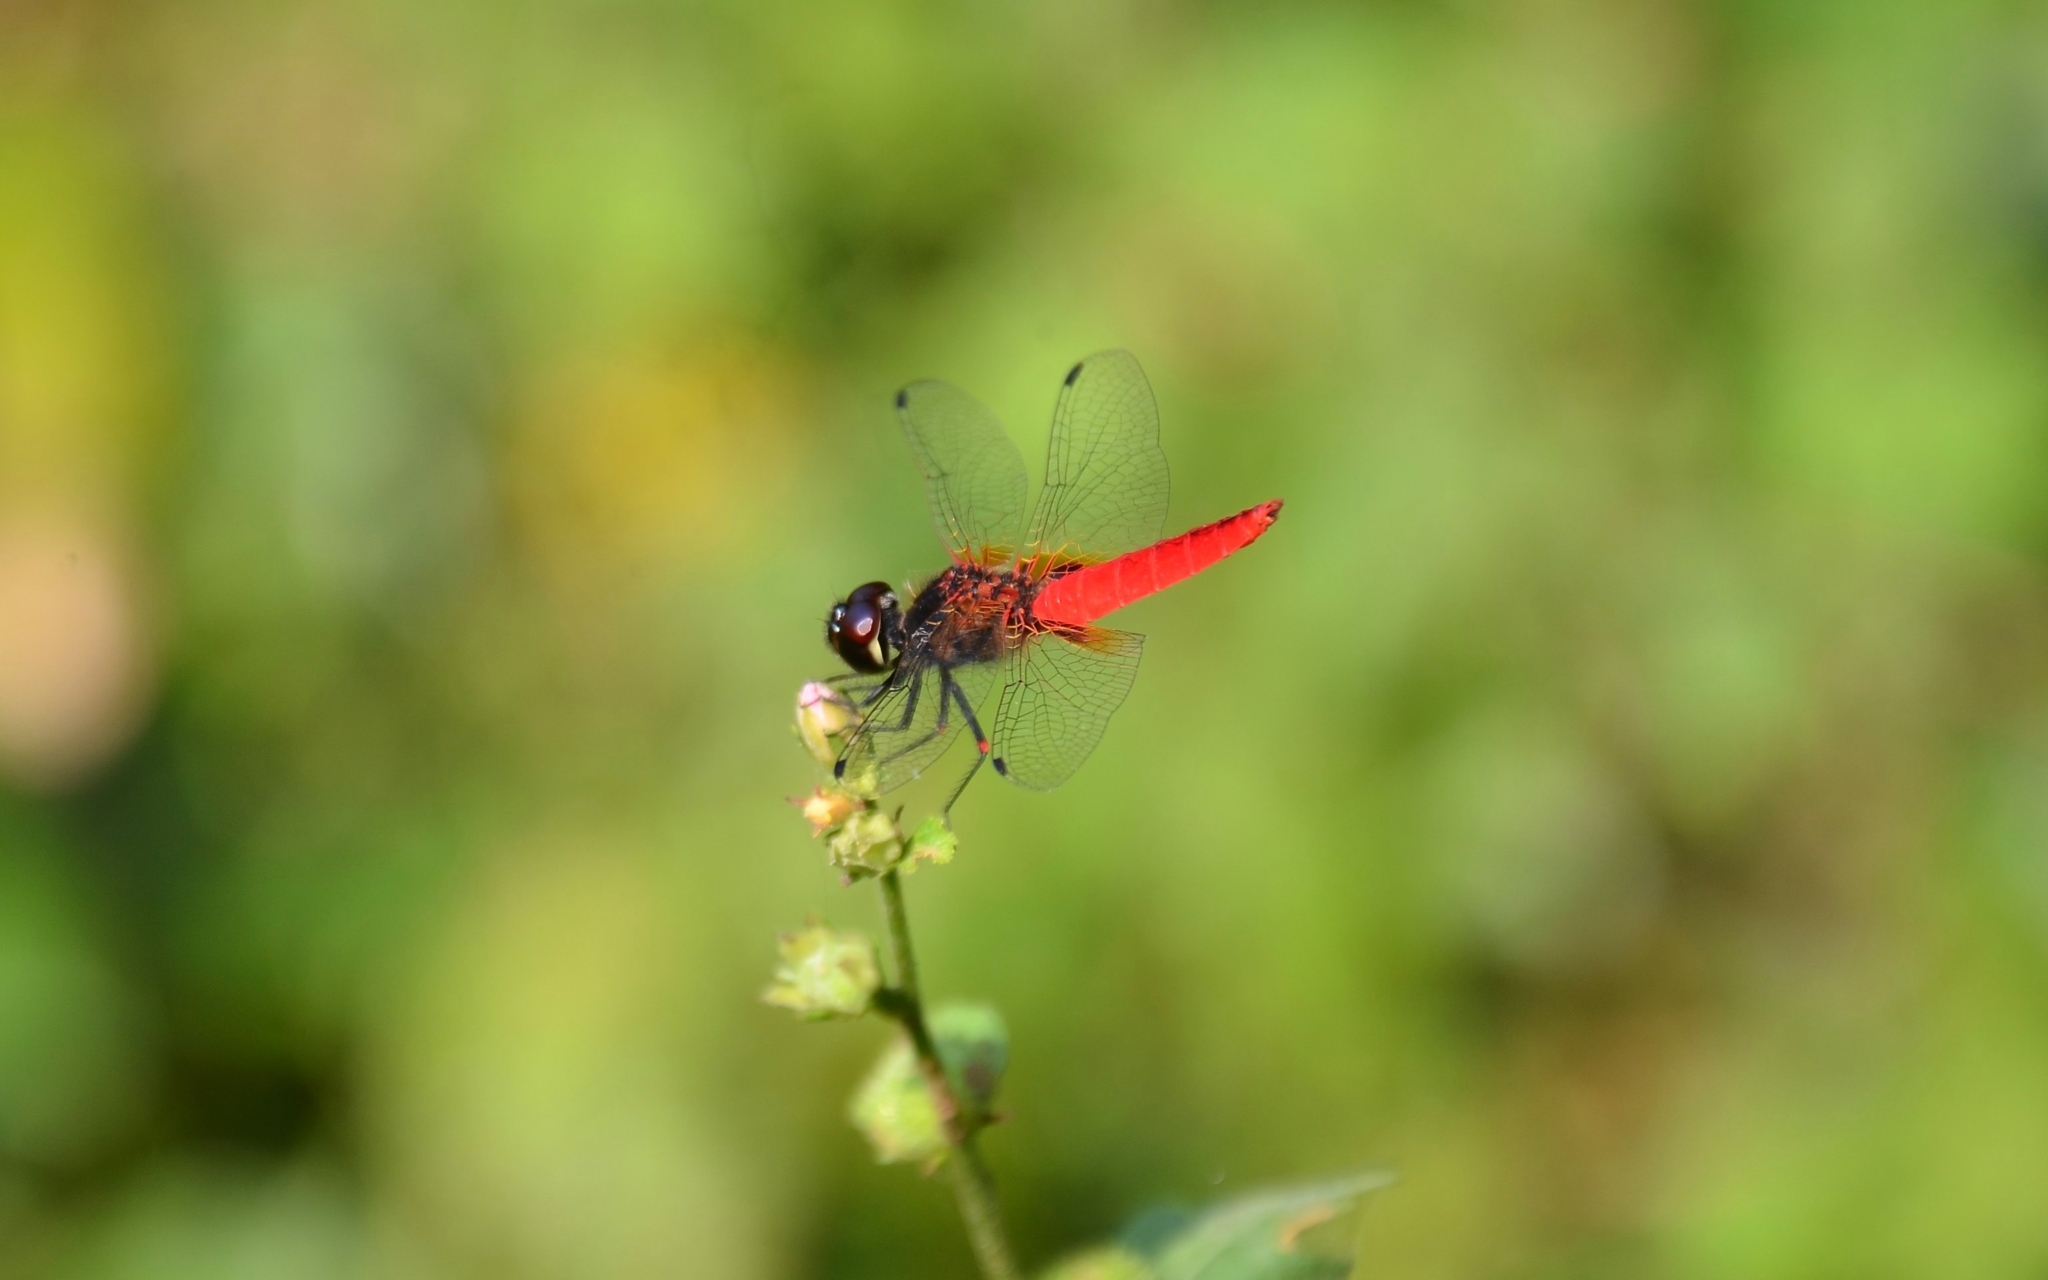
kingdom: Animalia
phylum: Arthropoda
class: Insecta
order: Odonata
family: Libellulidae
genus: Aethriamanta
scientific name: Aethriamanta brevipennis
